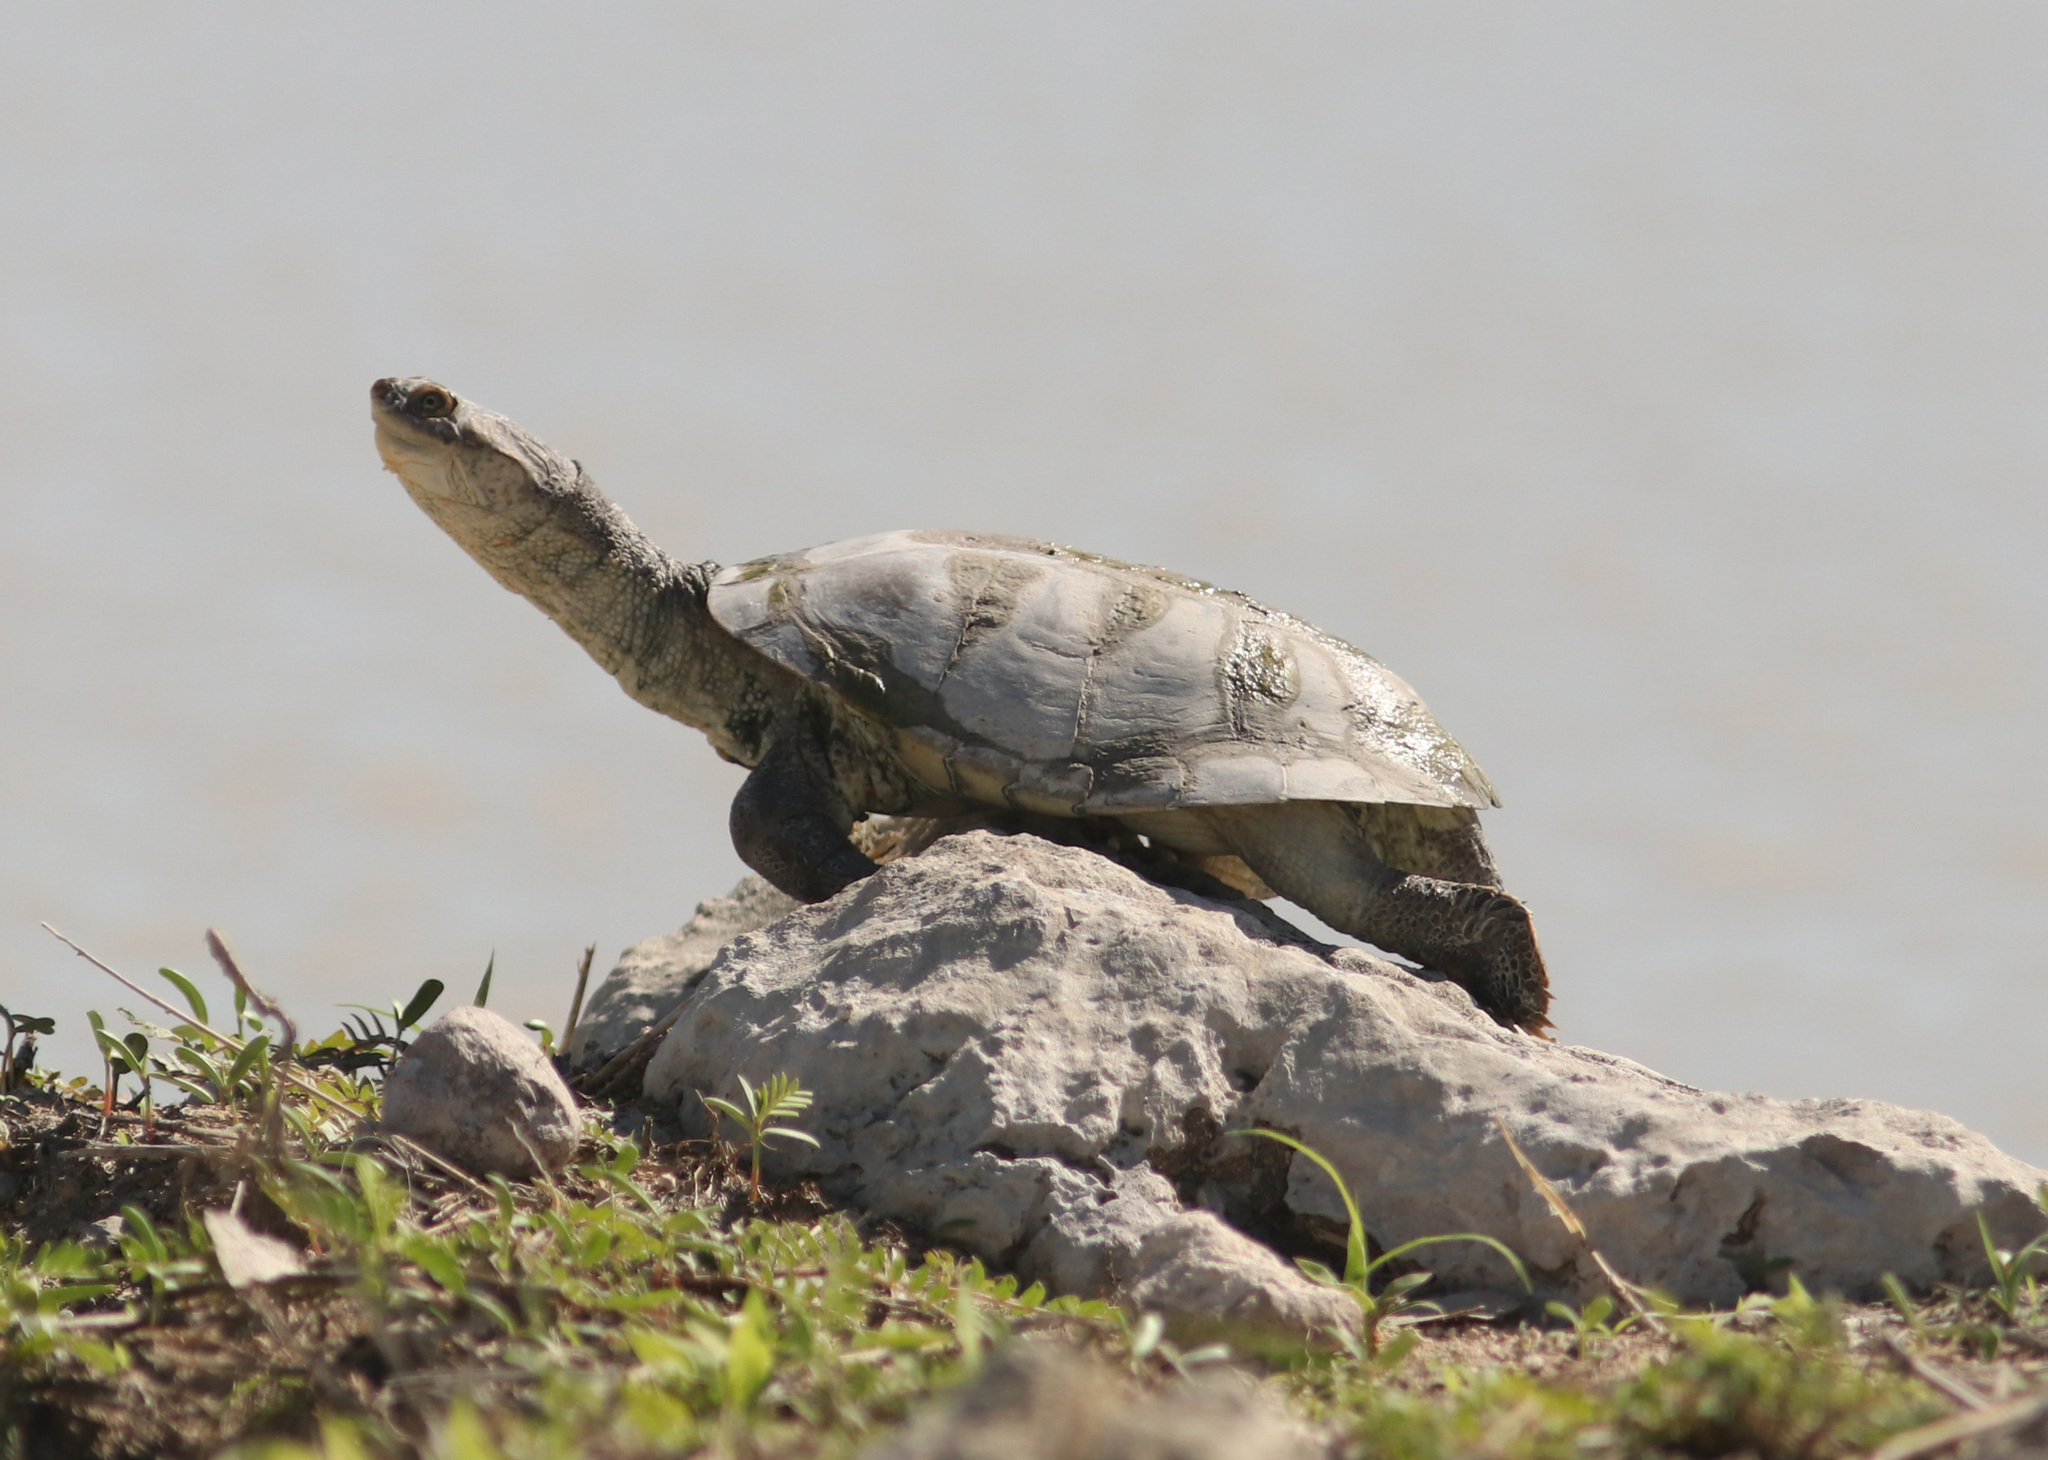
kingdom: Animalia
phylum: Chordata
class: Testudines
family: Pelomedusidae
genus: Pelomedusa
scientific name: Pelomedusa subrufa
